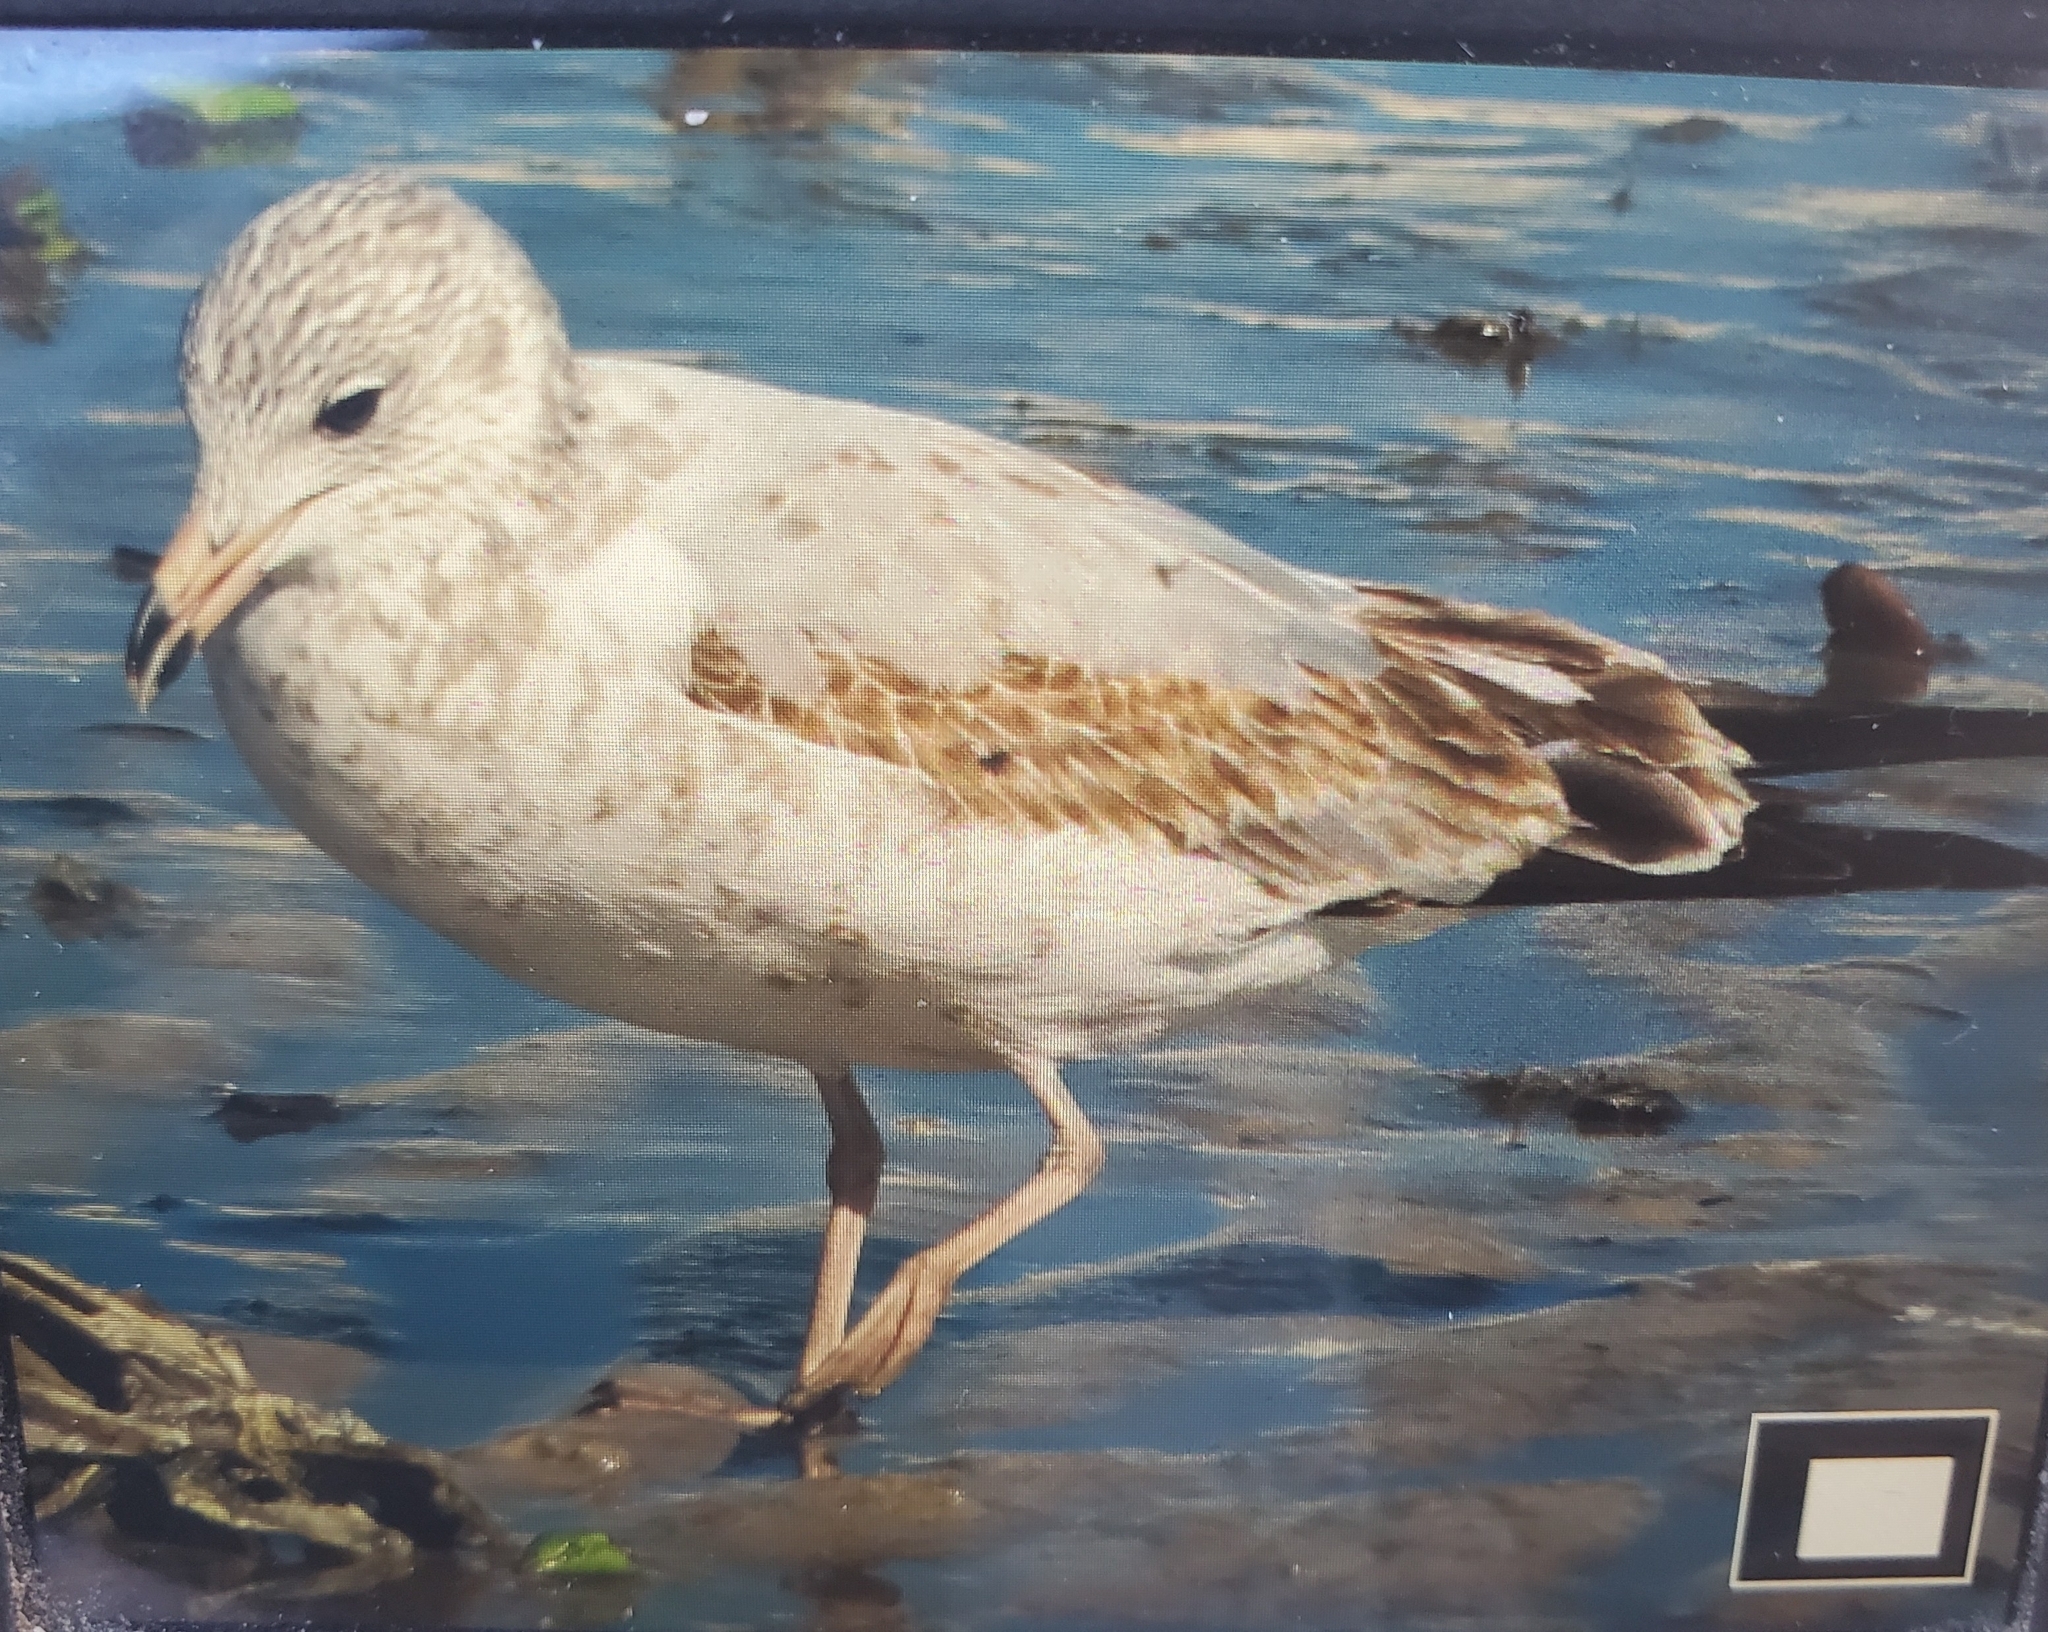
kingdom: Animalia
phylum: Chordata
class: Aves
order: Charadriiformes
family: Laridae
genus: Larus
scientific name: Larus delawarensis
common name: Ring-billed gull
